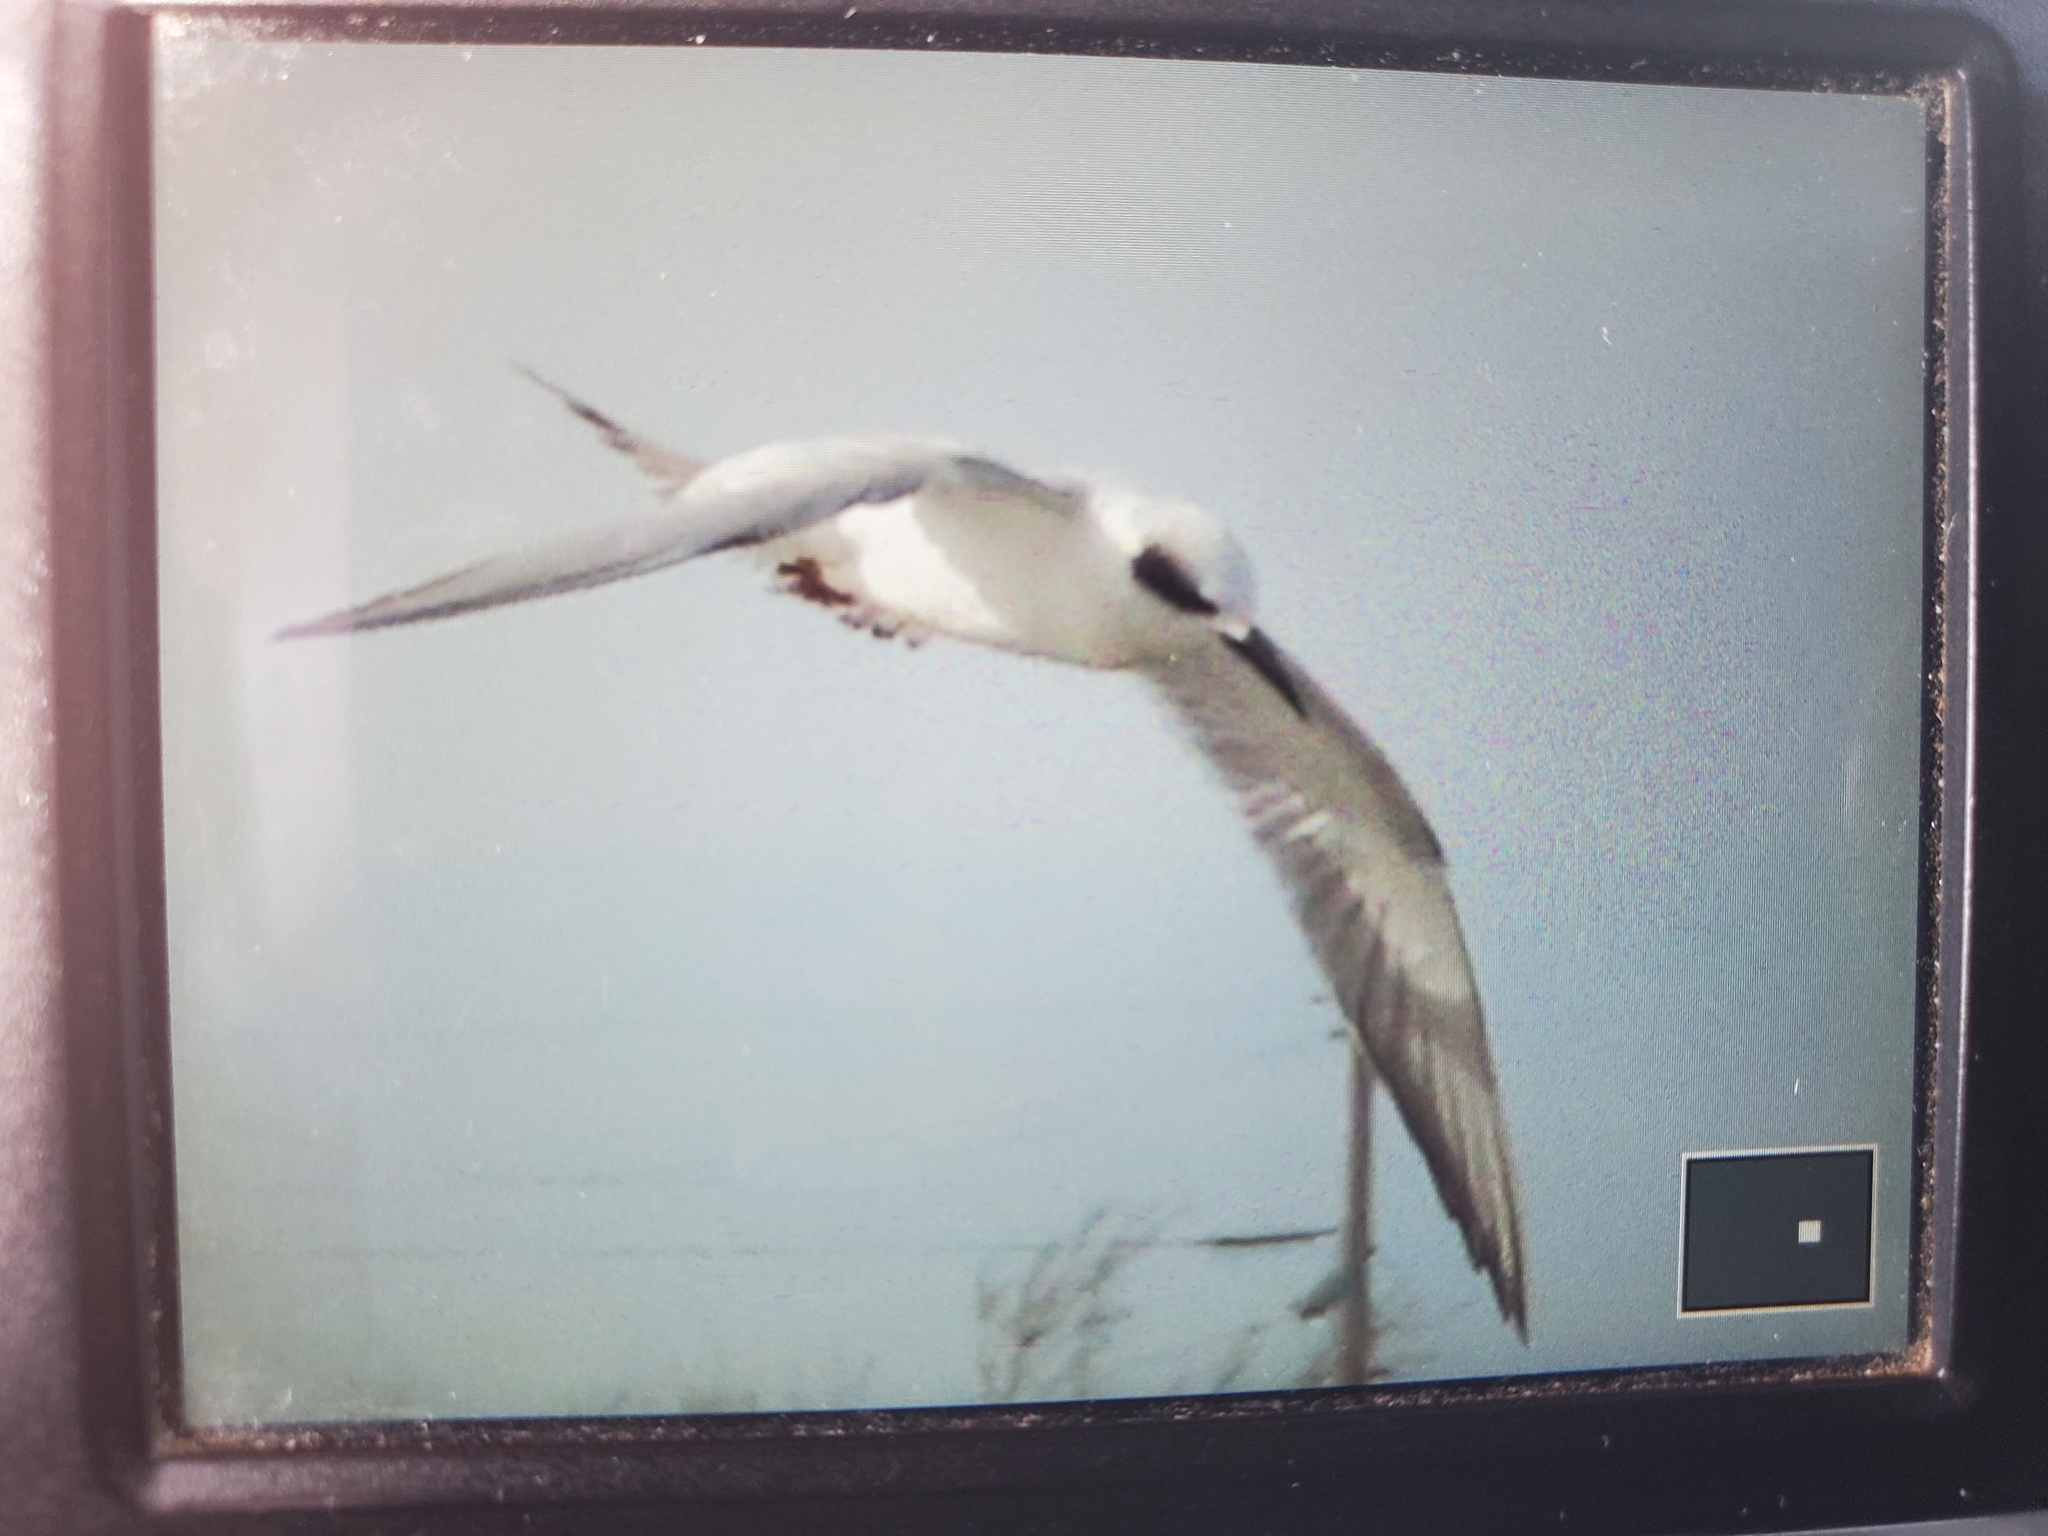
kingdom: Animalia
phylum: Chordata
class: Aves
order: Charadriiformes
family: Laridae
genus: Sterna
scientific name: Sterna forsteri
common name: Forster's tern
